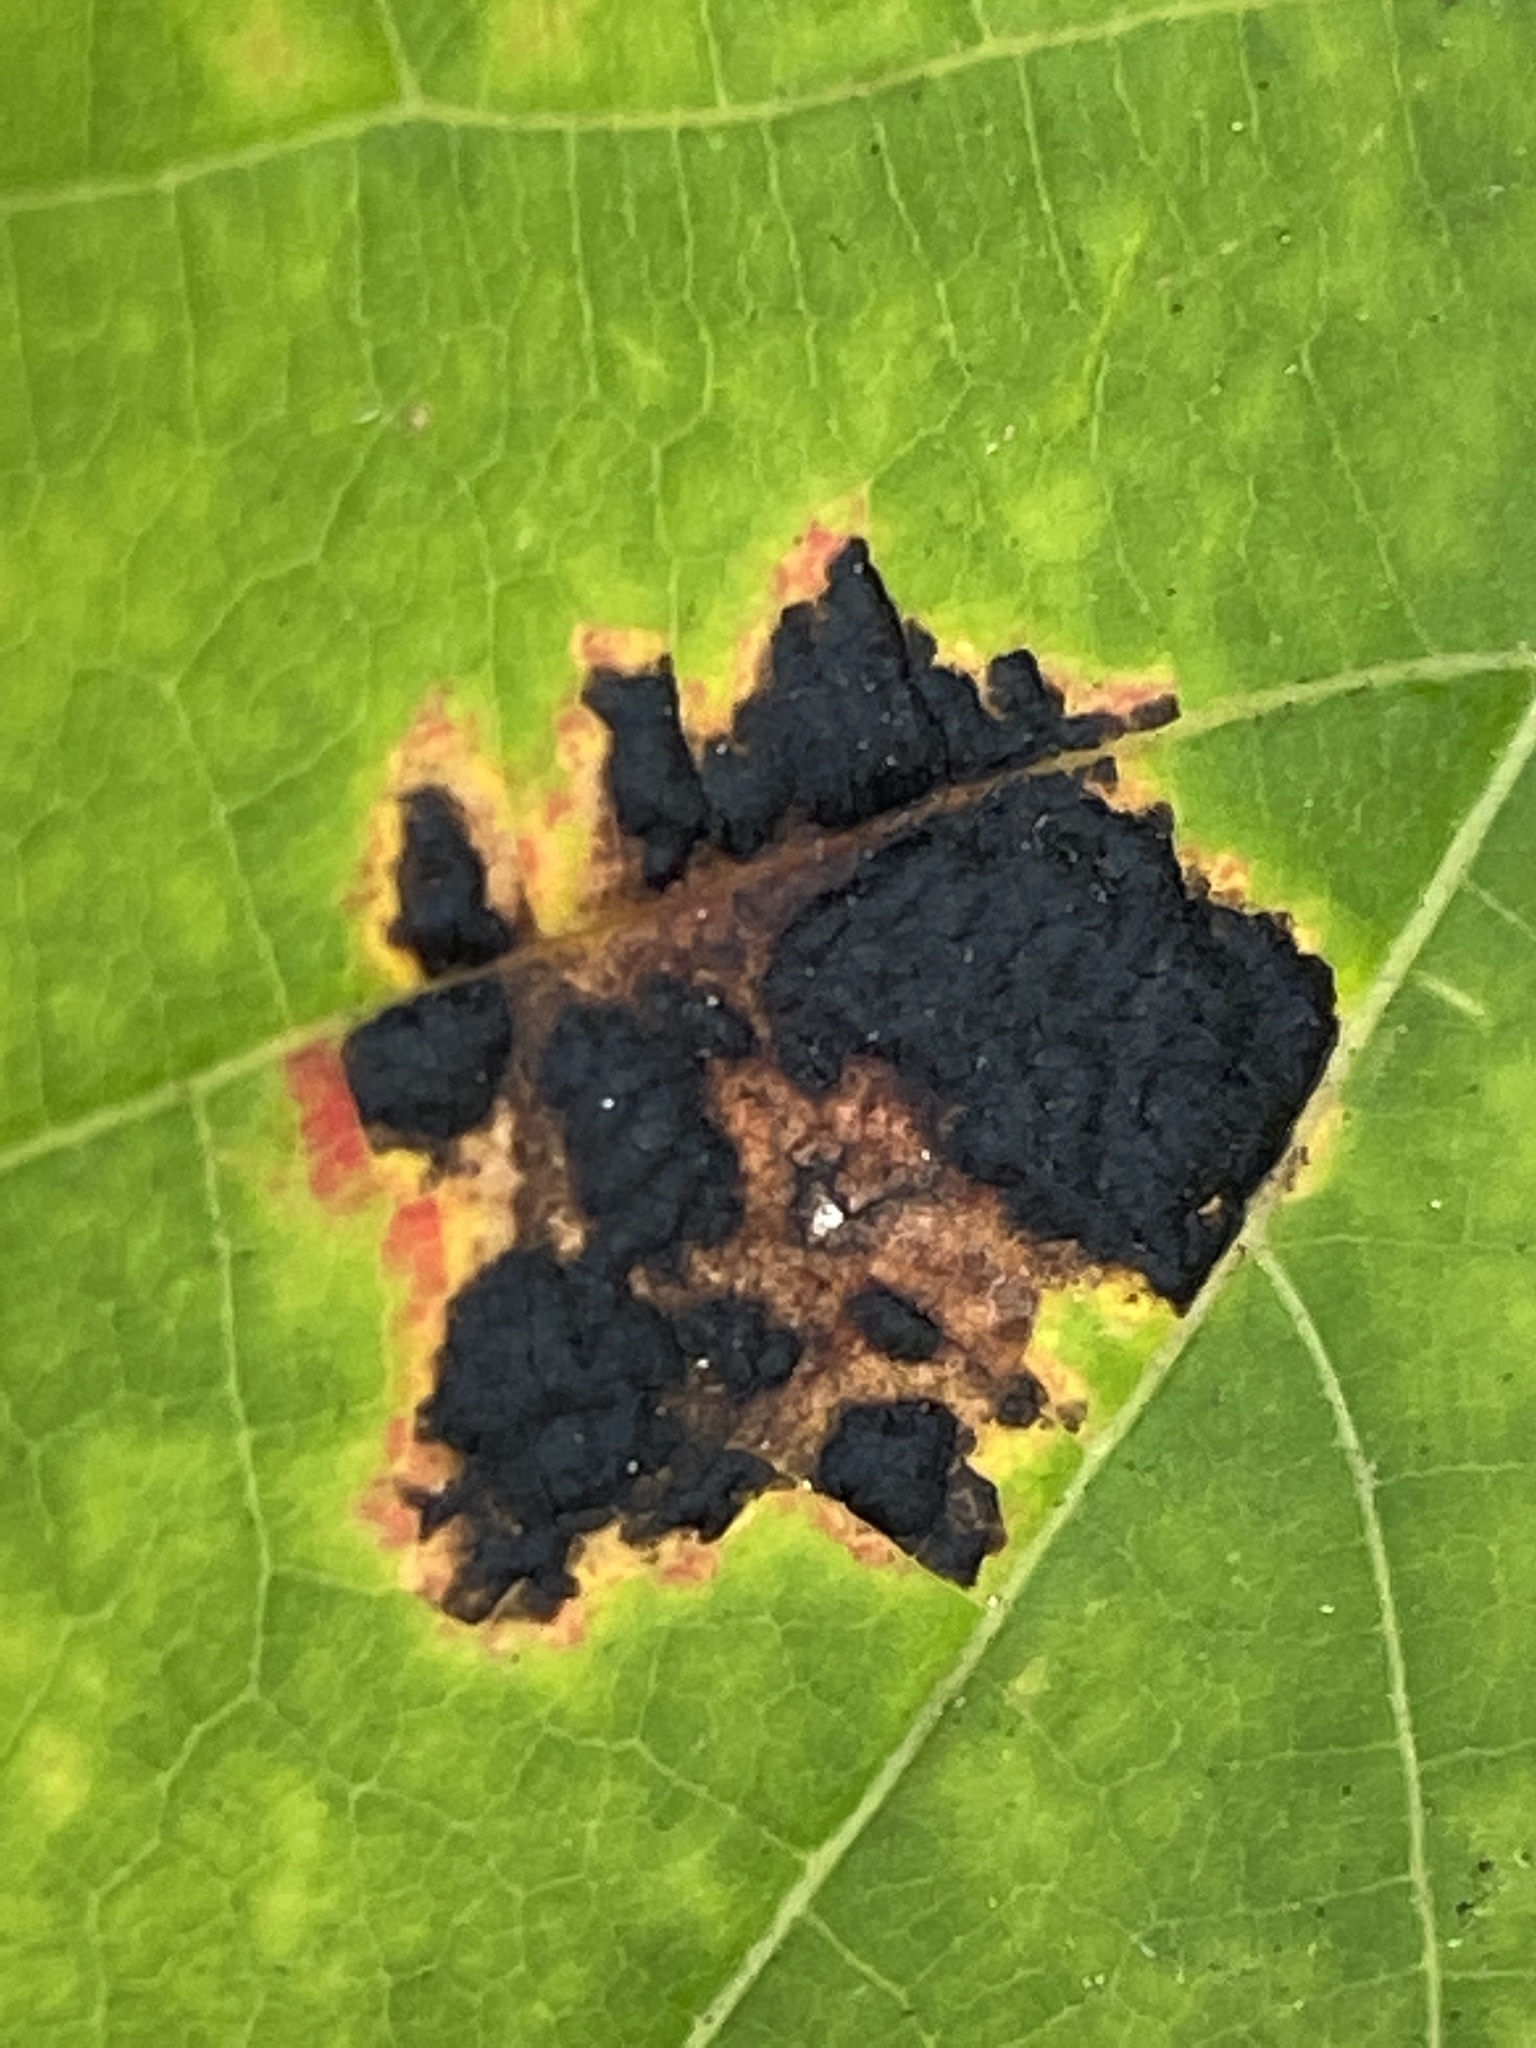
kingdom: Fungi
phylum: Ascomycota
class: Leotiomycetes
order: Rhytismatales
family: Rhytismataceae
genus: Rhytisma
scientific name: Rhytisma americanum
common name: American tar spot
